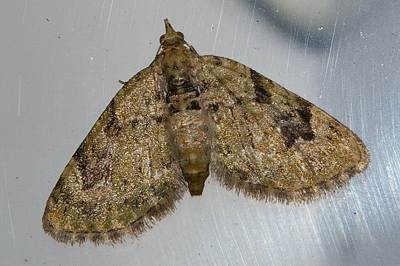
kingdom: Animalia
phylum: Arthropoda
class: Insecta
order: Lepidoptera
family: Geometridae
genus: Chloroclystis
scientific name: Chloroclystis v-ata
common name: V-pug
